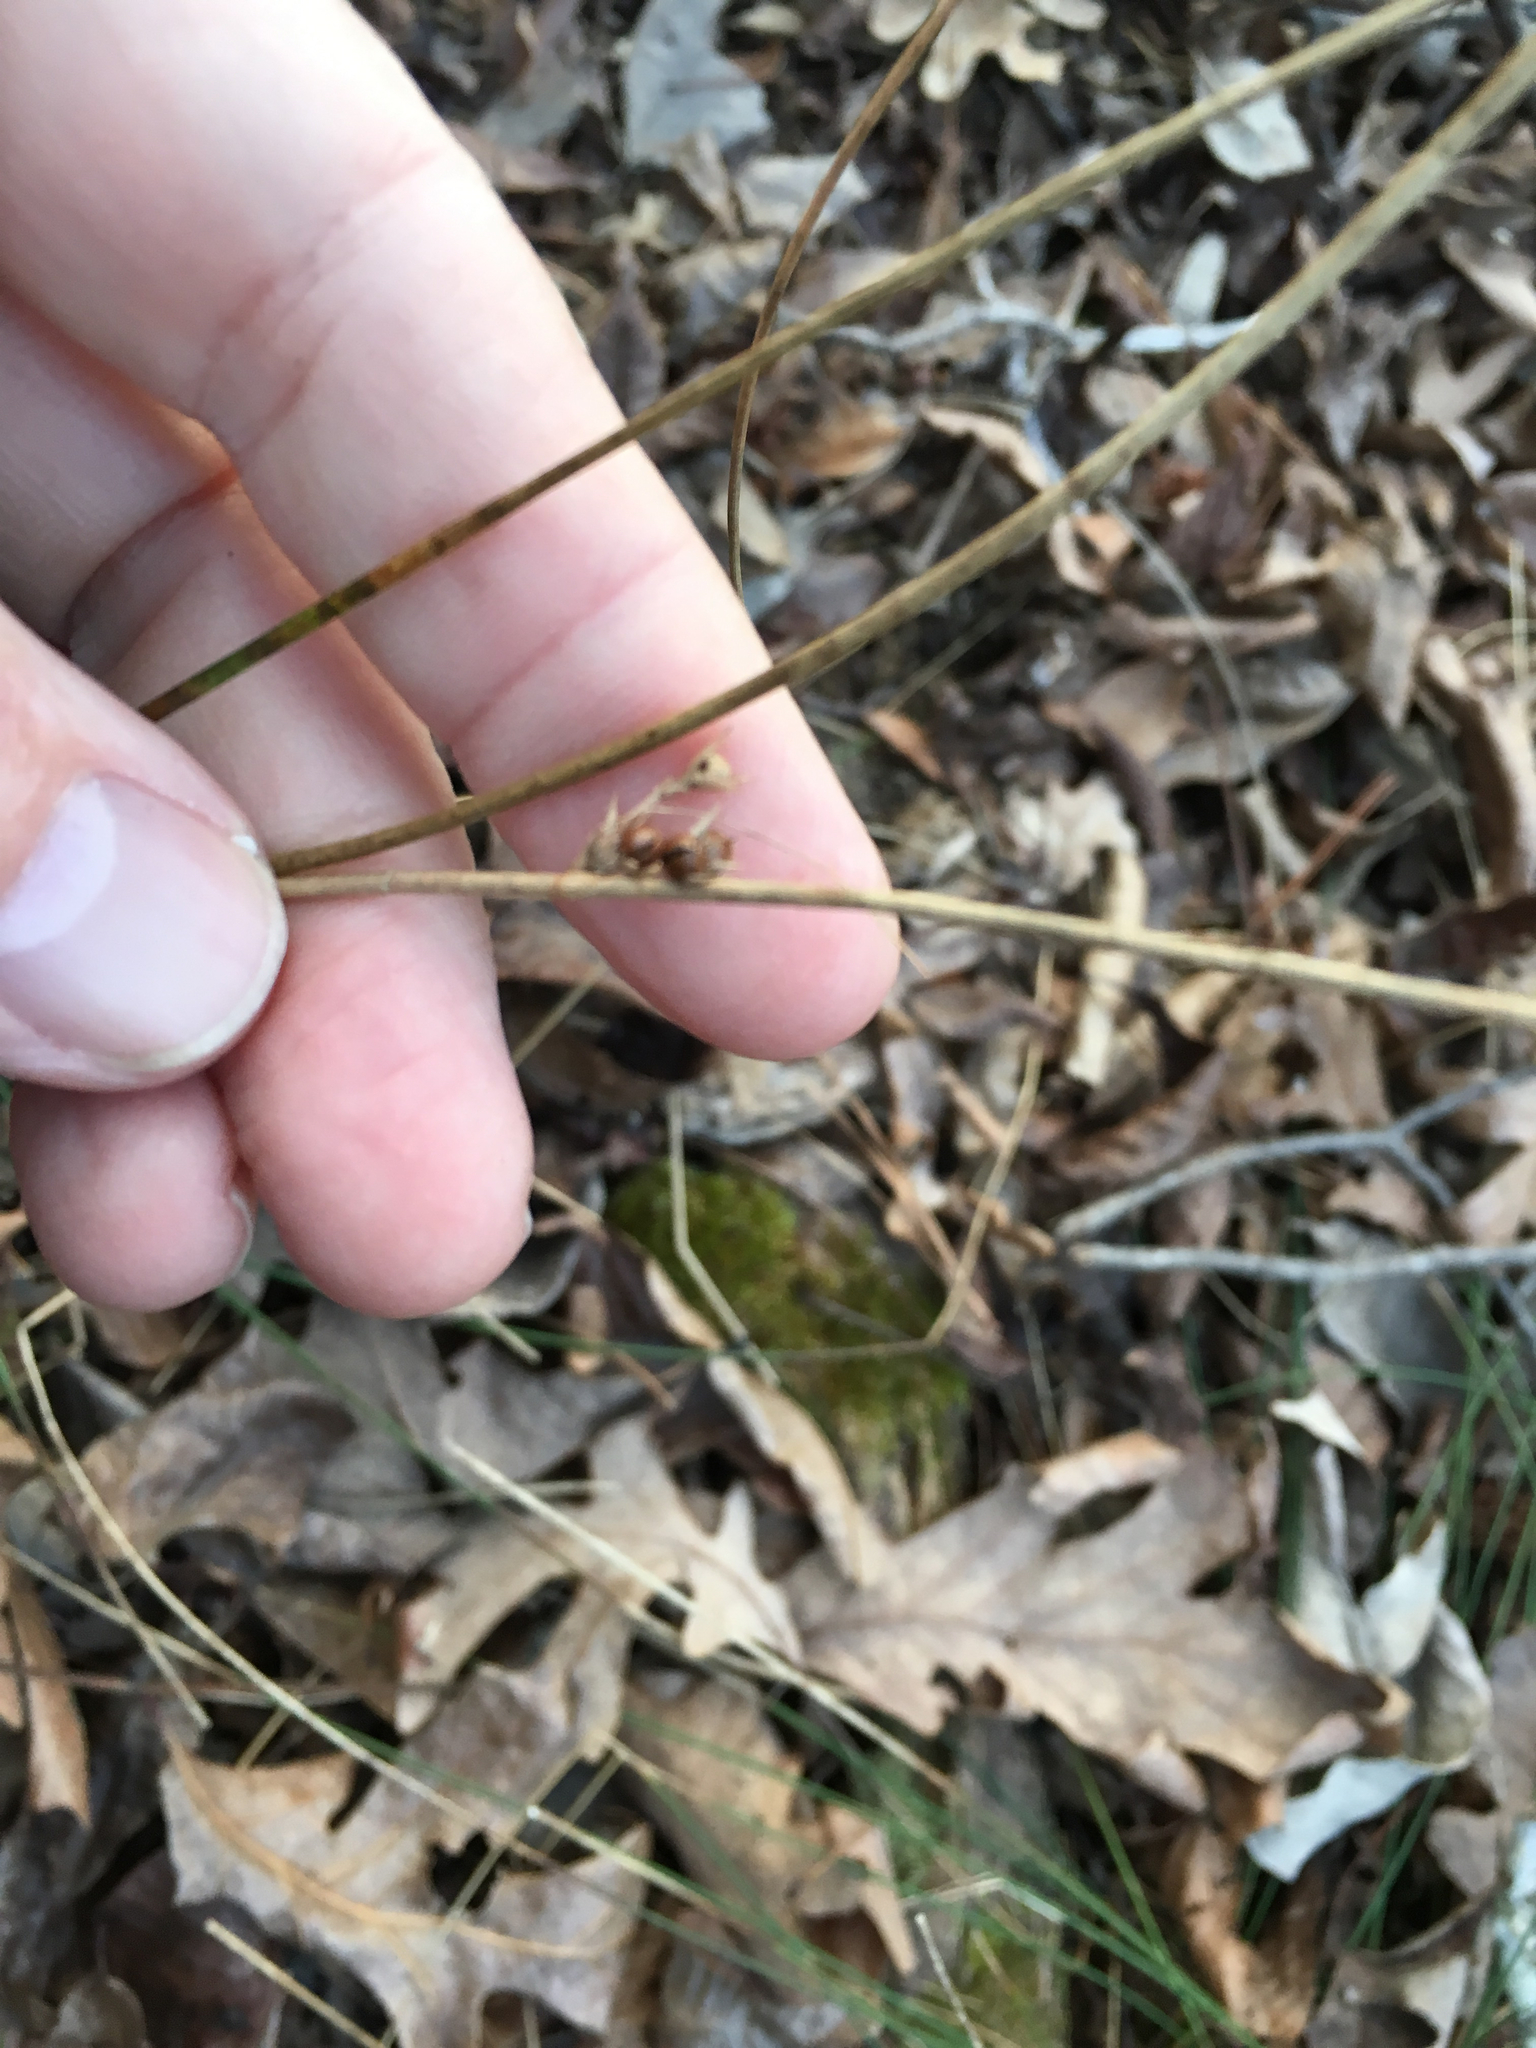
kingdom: Plantae
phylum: Tracheophyta
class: Liliopsida
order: Poales
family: Juncaceae
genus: Juncus
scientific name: Juncus coriaceus
